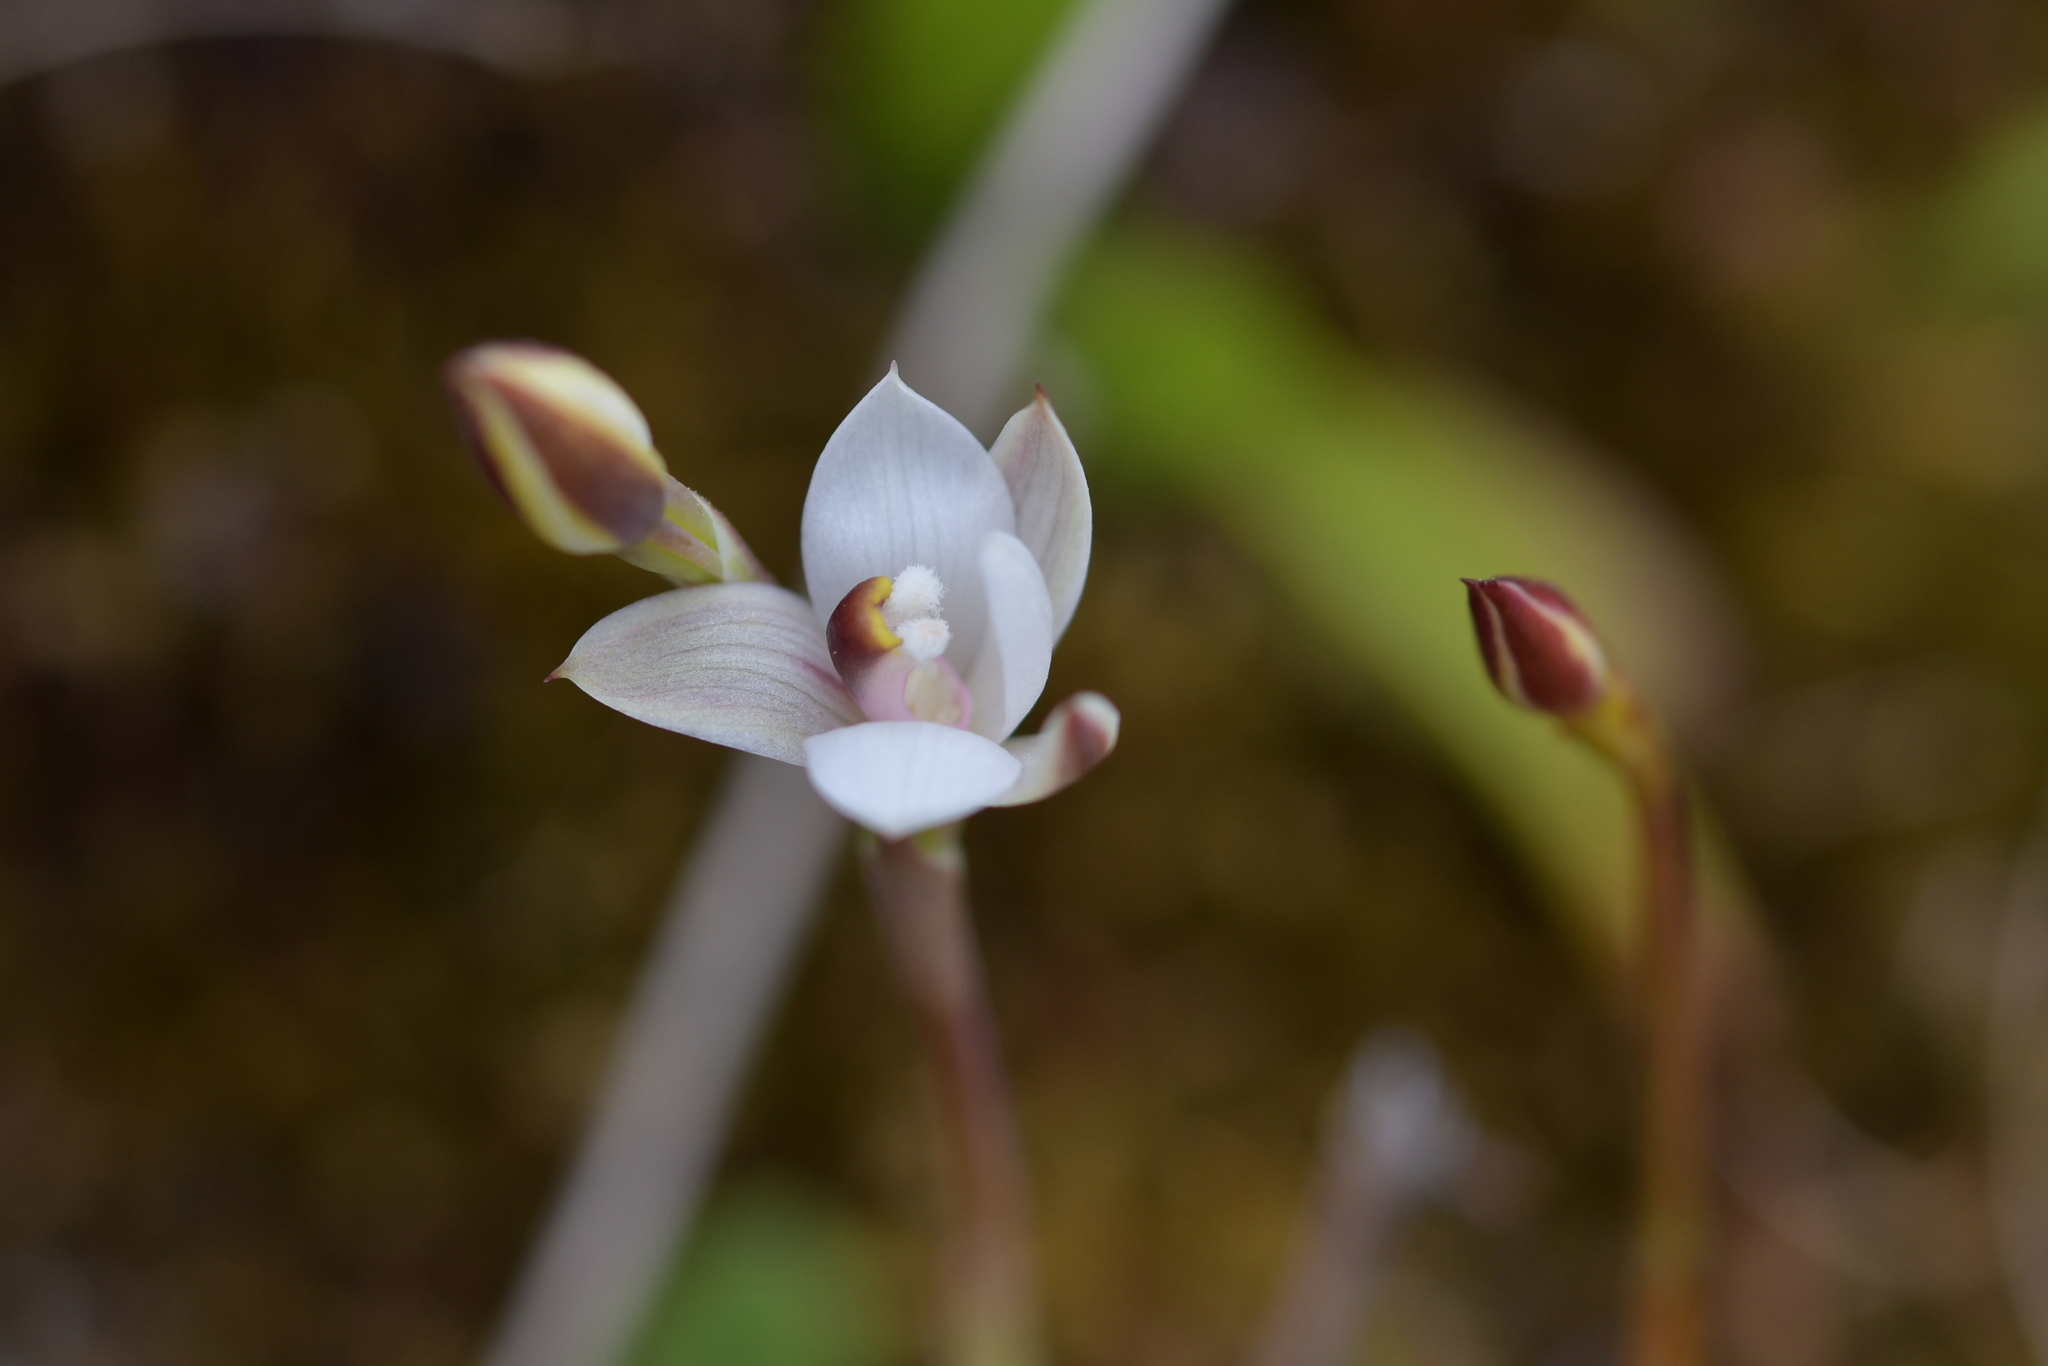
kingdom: Plantae
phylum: Tracheophyta
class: Liliopsida
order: Asparagales
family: Orchidaceae
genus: Thelymitra
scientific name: Thelymitra longifolia
